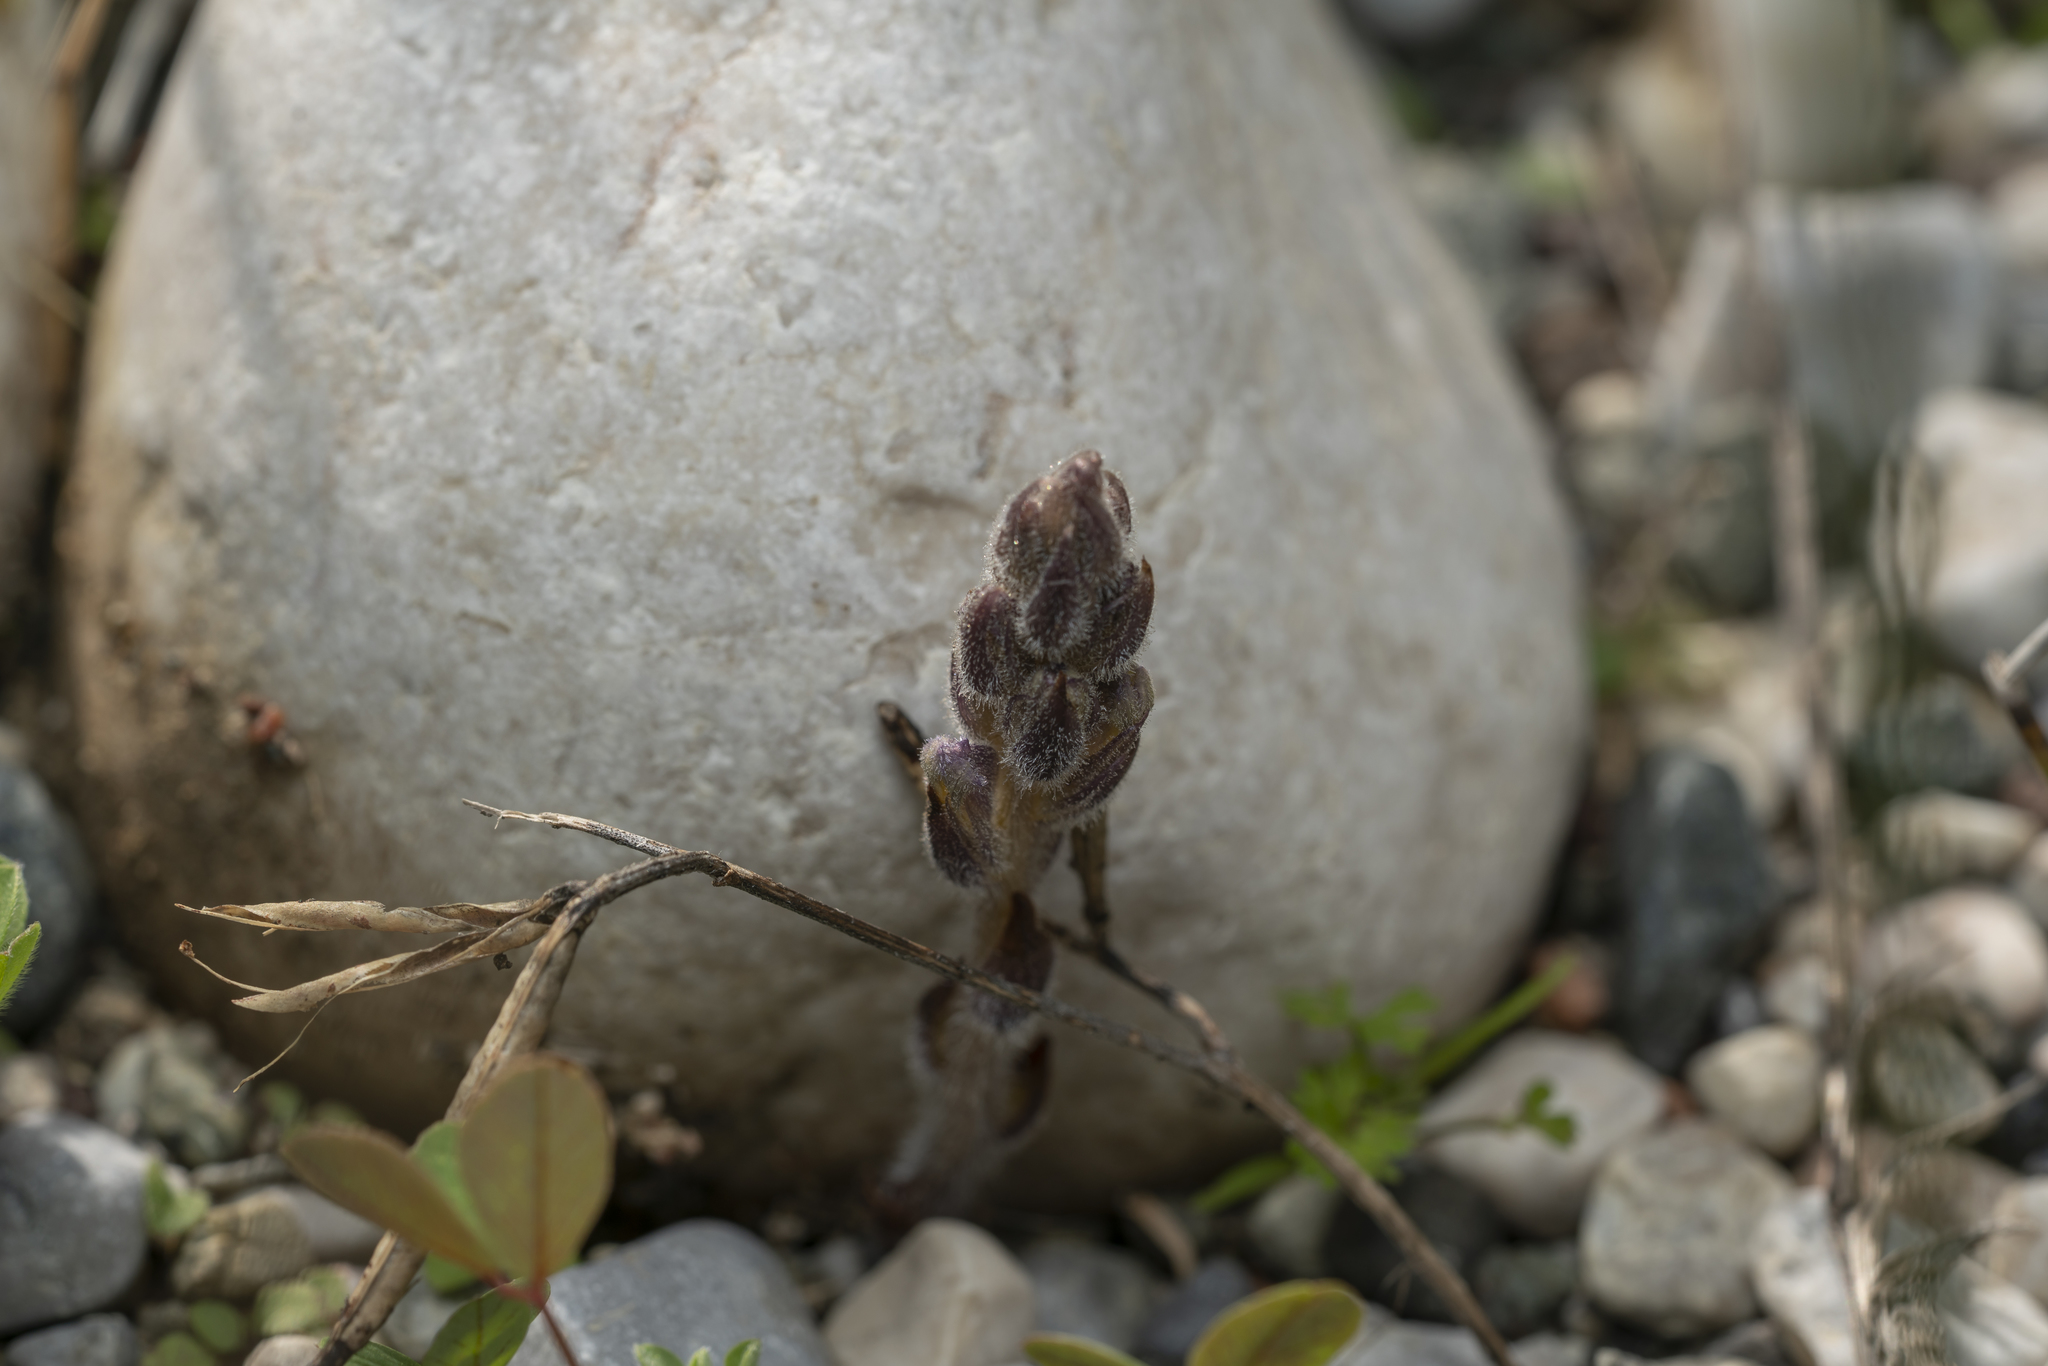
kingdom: Plantae
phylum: Tracheophyta
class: Magnoliopsida
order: Lamiales
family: Orobanchaceae
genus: Phelipanche
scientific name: Phelipanche mutelii
